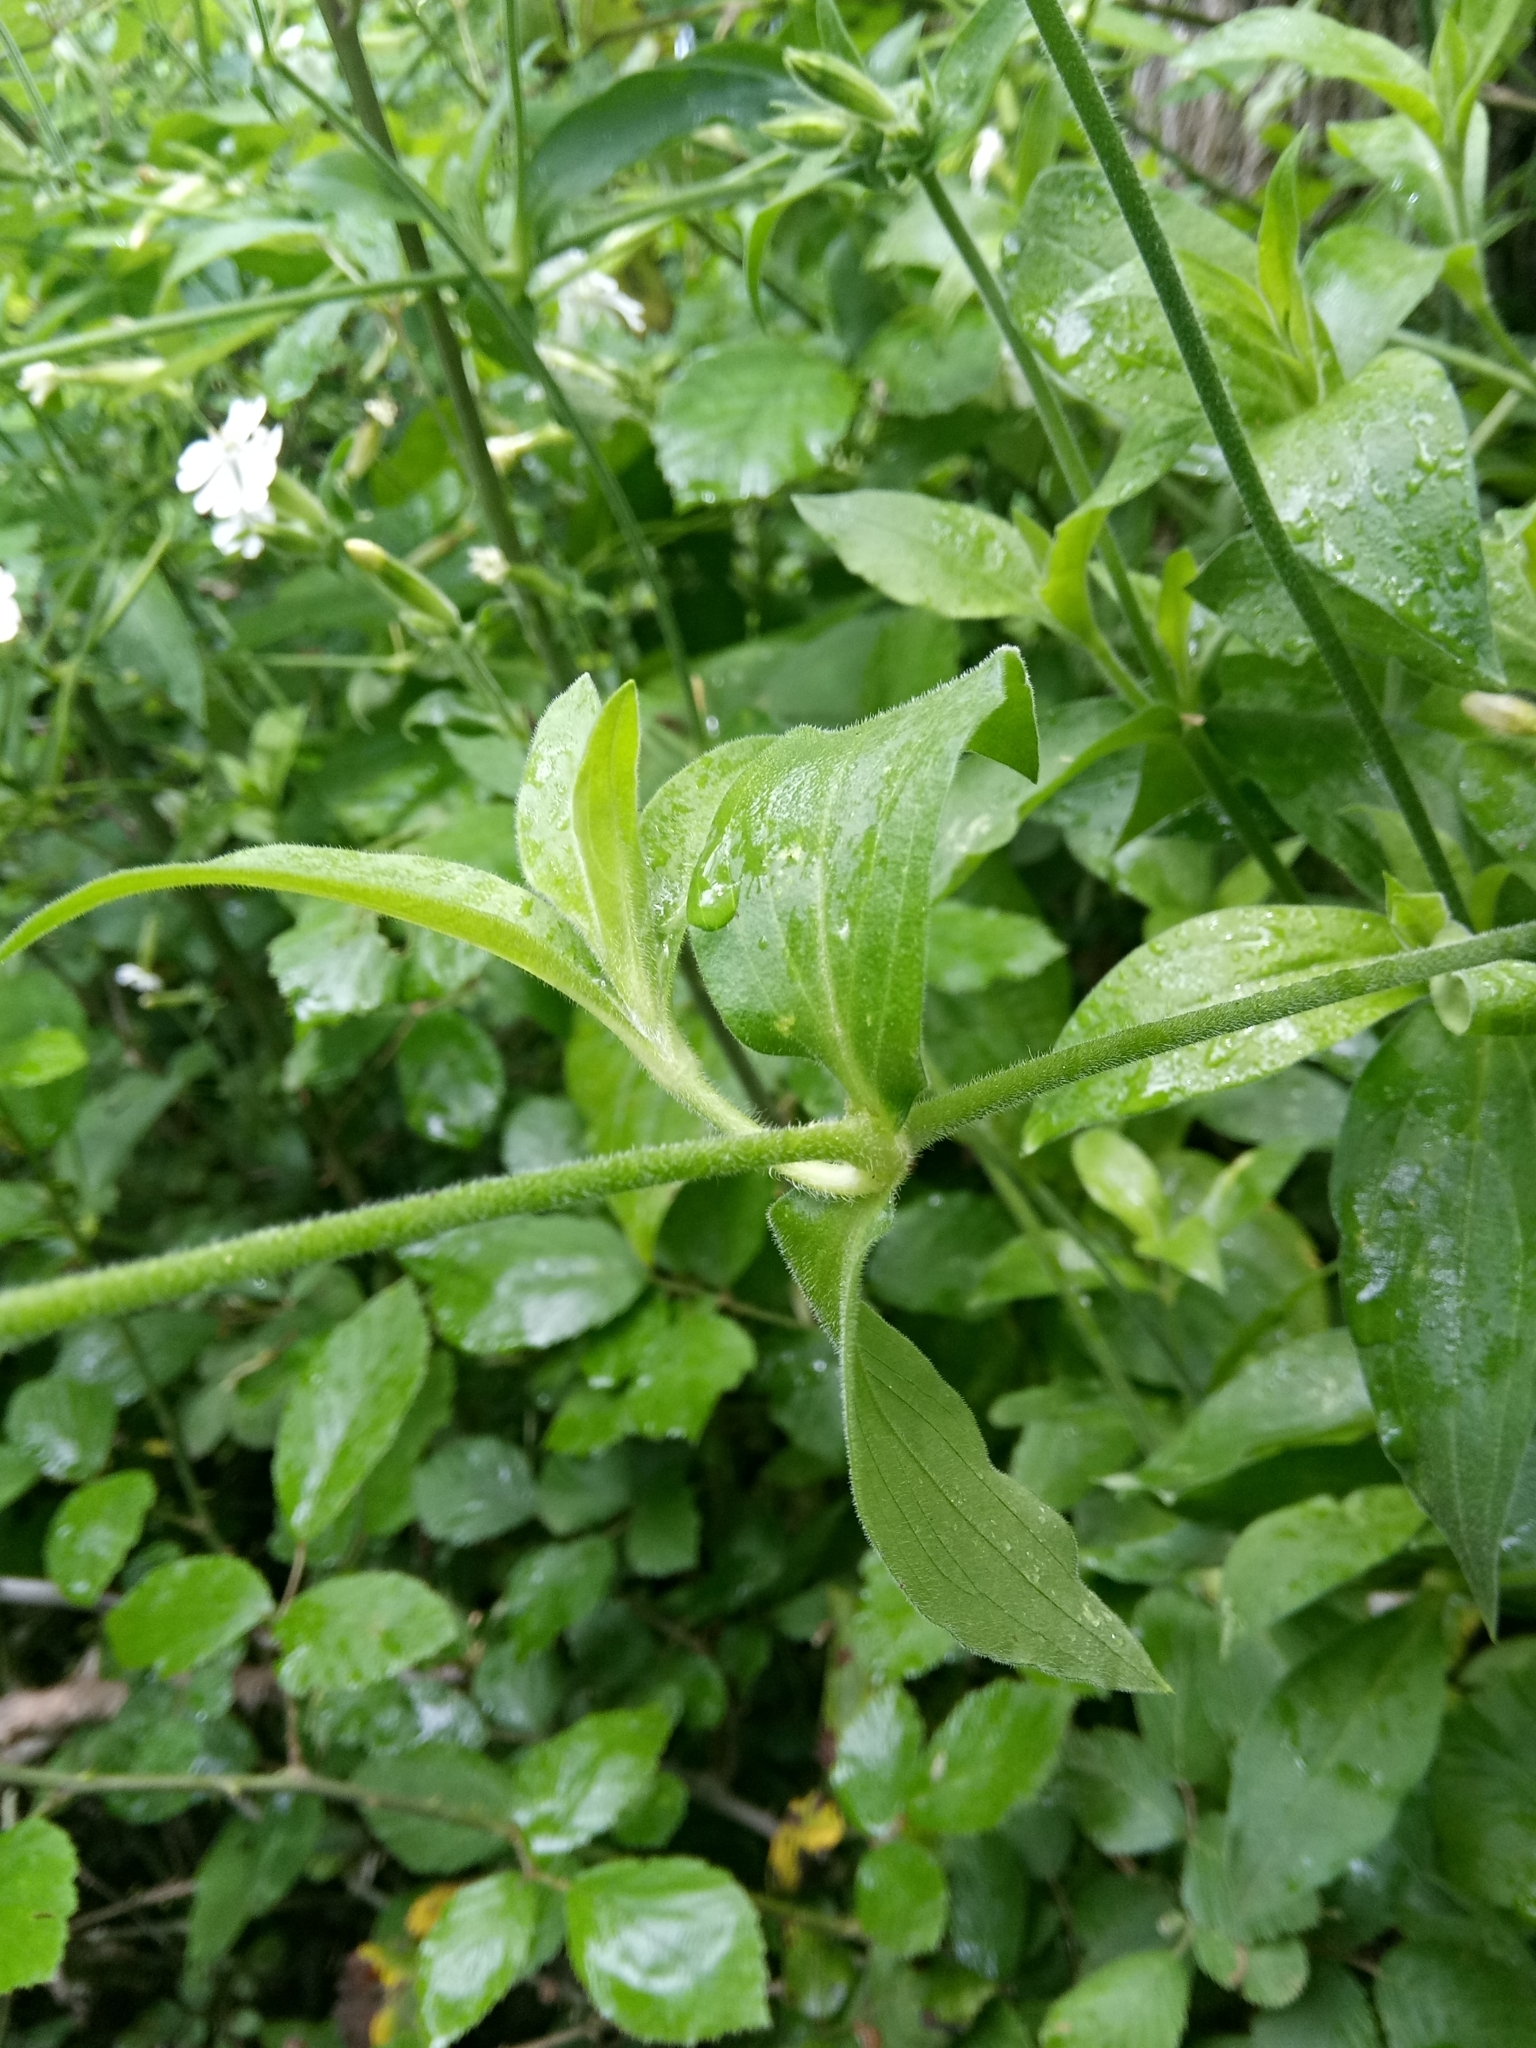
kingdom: Plantae
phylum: Tracheophyta
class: Magnoliopsida
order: Caryophyllales
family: Caryophyllaceae
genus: Silene
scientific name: Silene latifolia
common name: White campion
